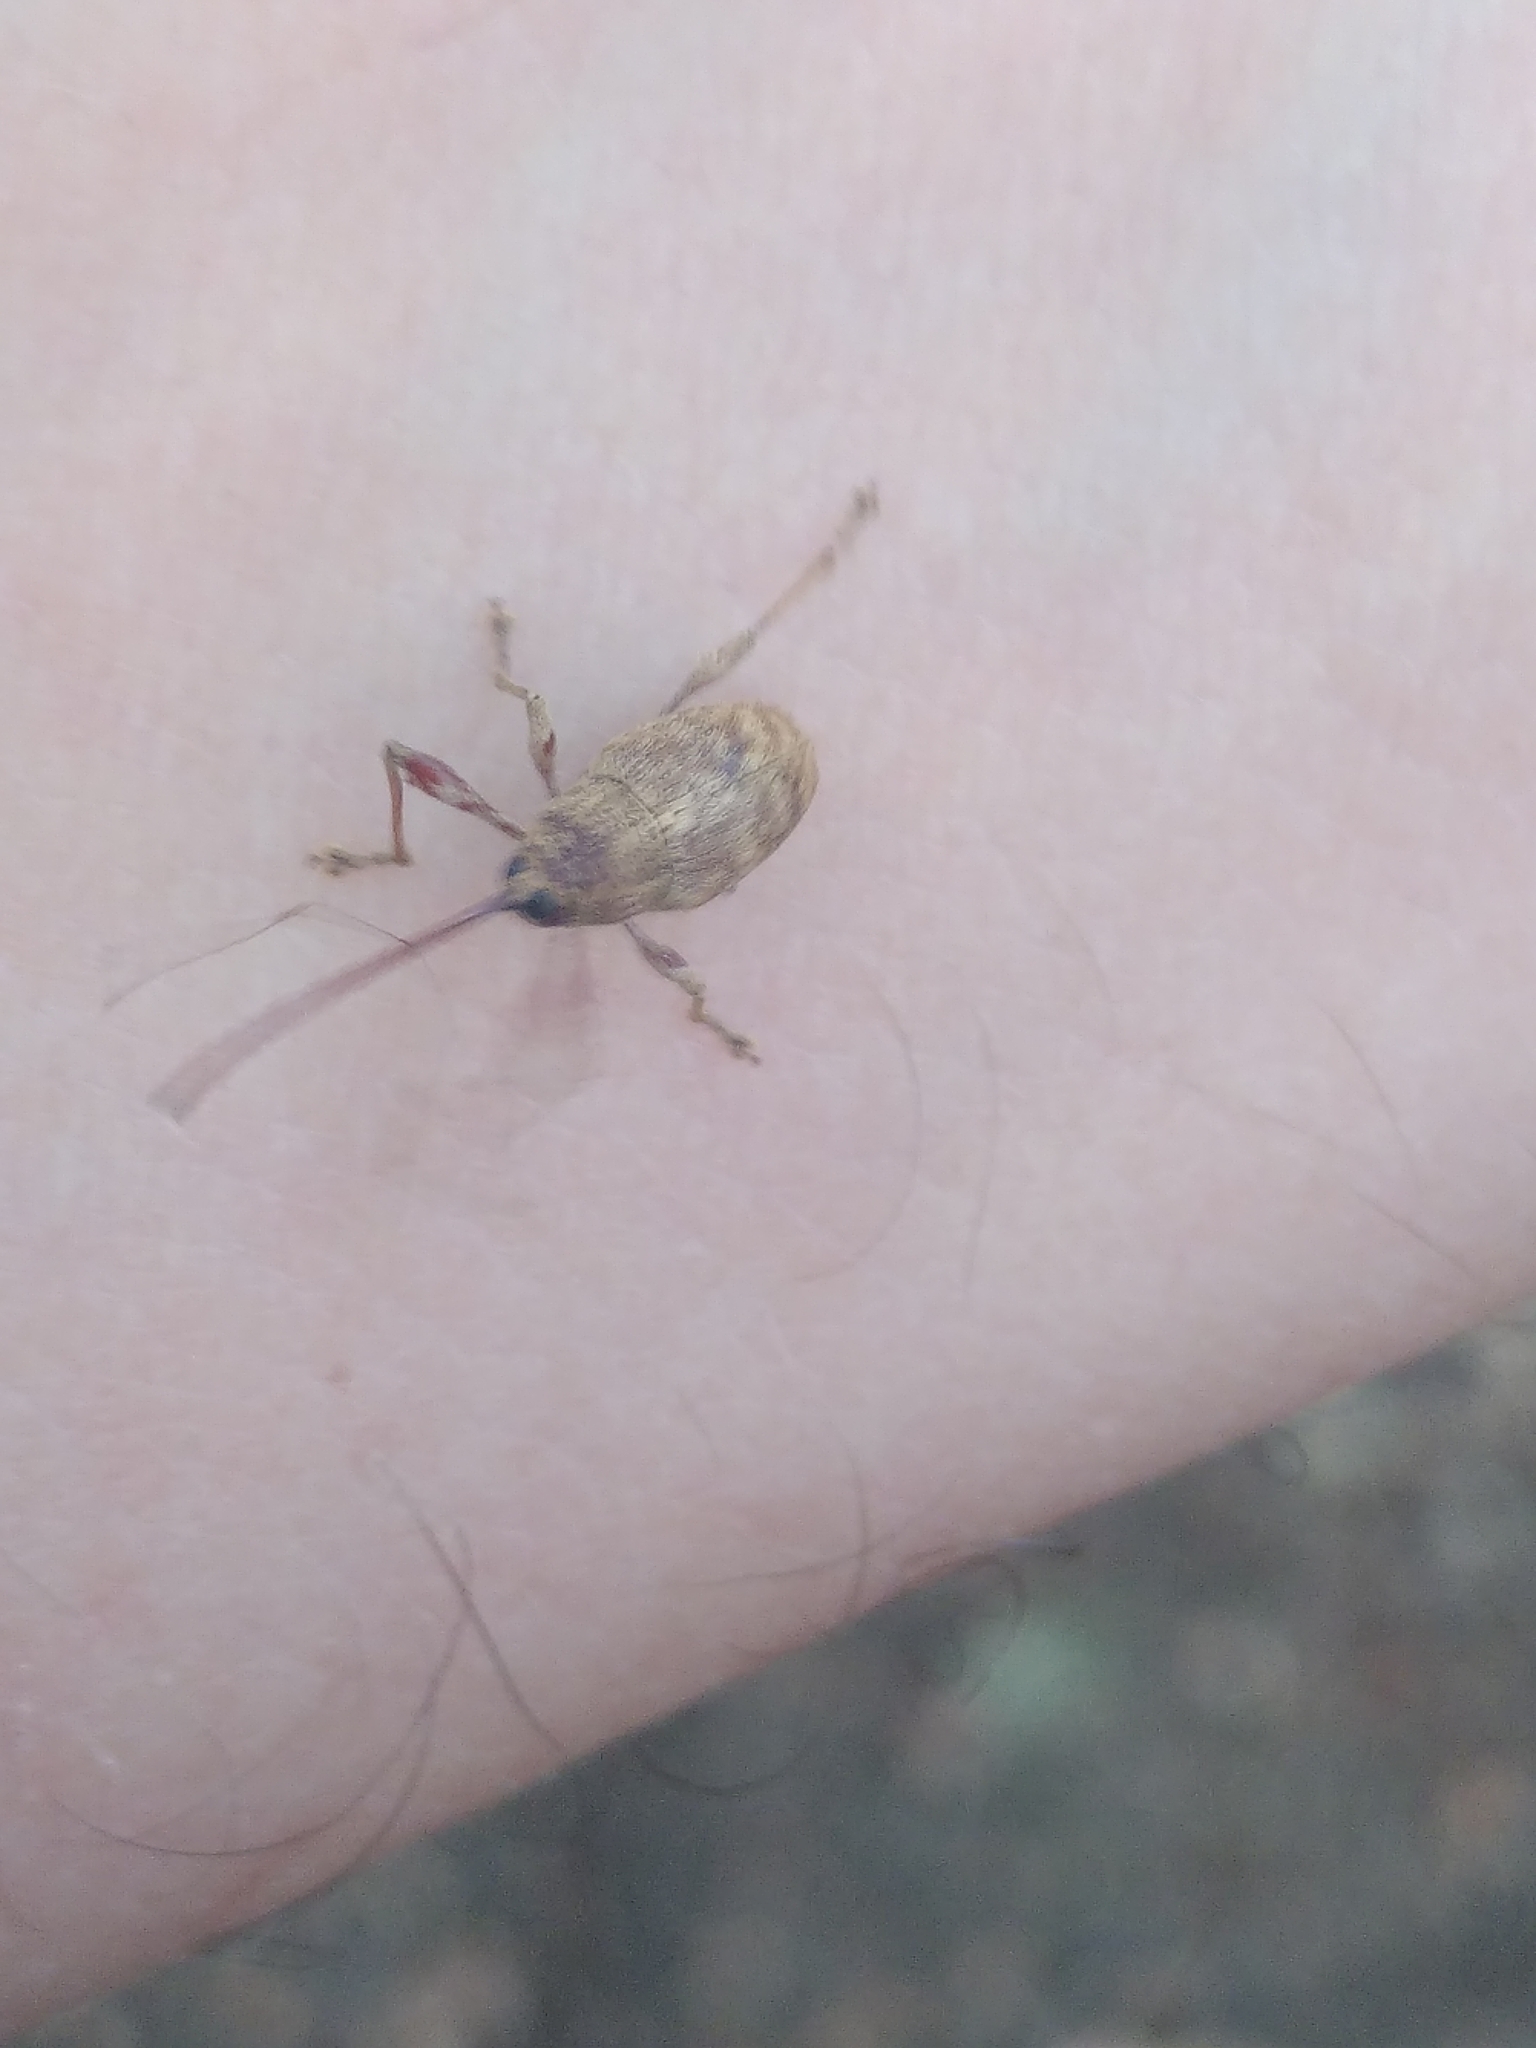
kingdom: Animalia
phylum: Arthropoda
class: Insecta
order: Coleoptera
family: Curculionidae
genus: Curculio
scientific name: Curculio elephas
